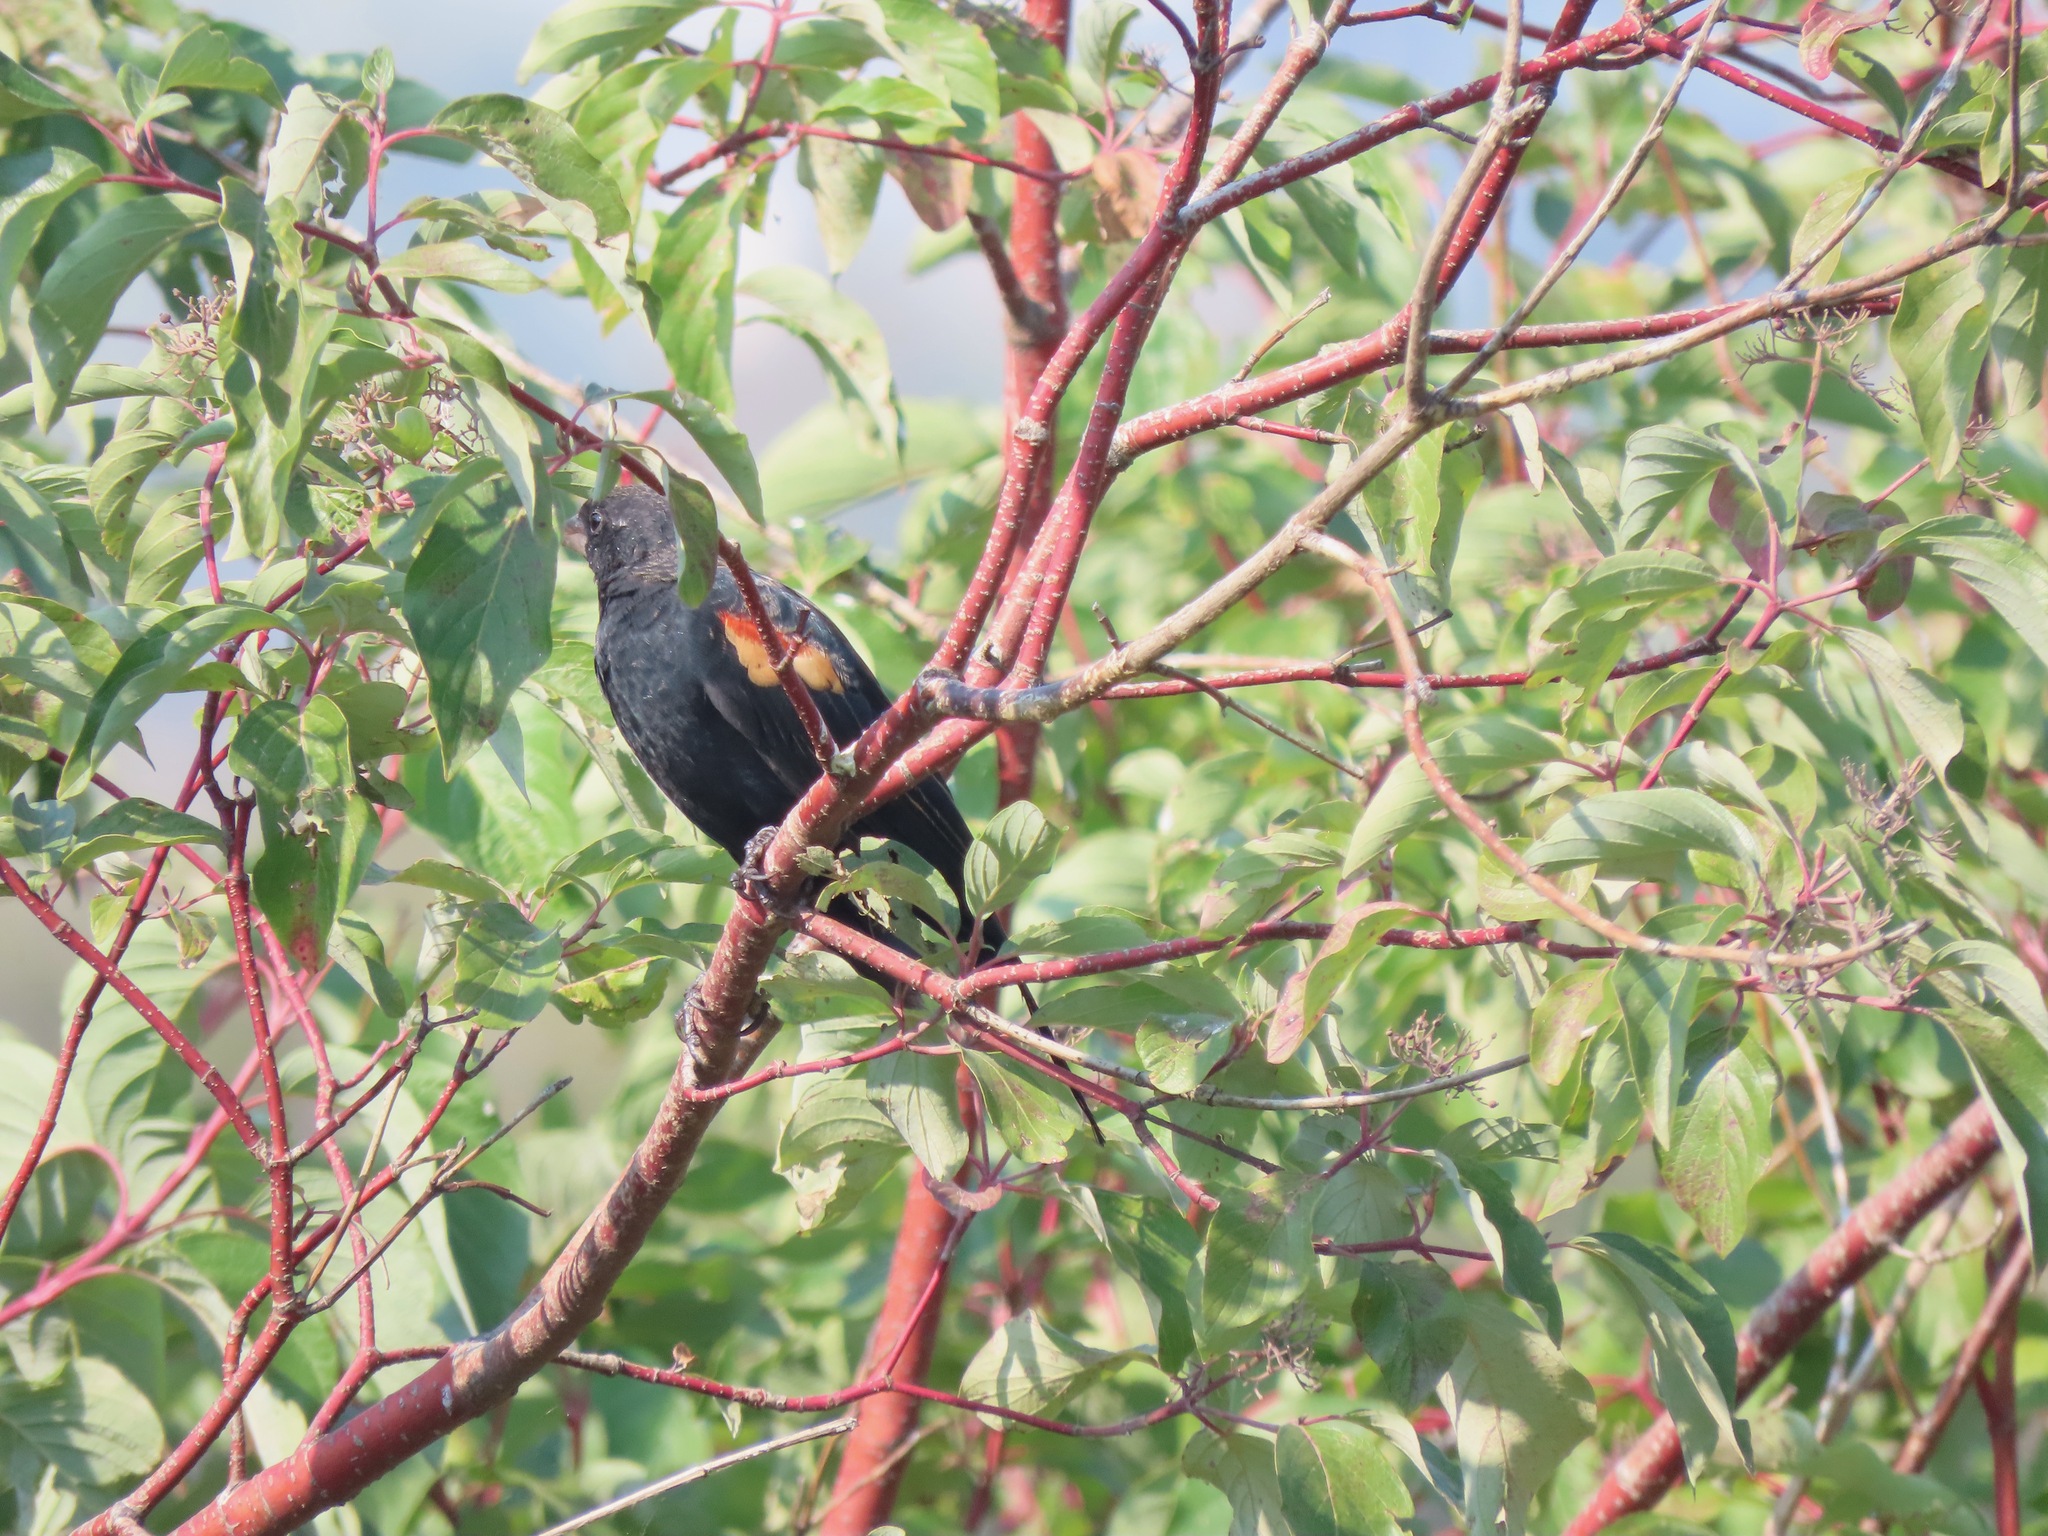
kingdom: Animalia
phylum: Chordata
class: Aves
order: Passeriformes
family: Icteridae
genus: Agelaius
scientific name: Agelaius phoeniceus
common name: Red-winged blackbird
